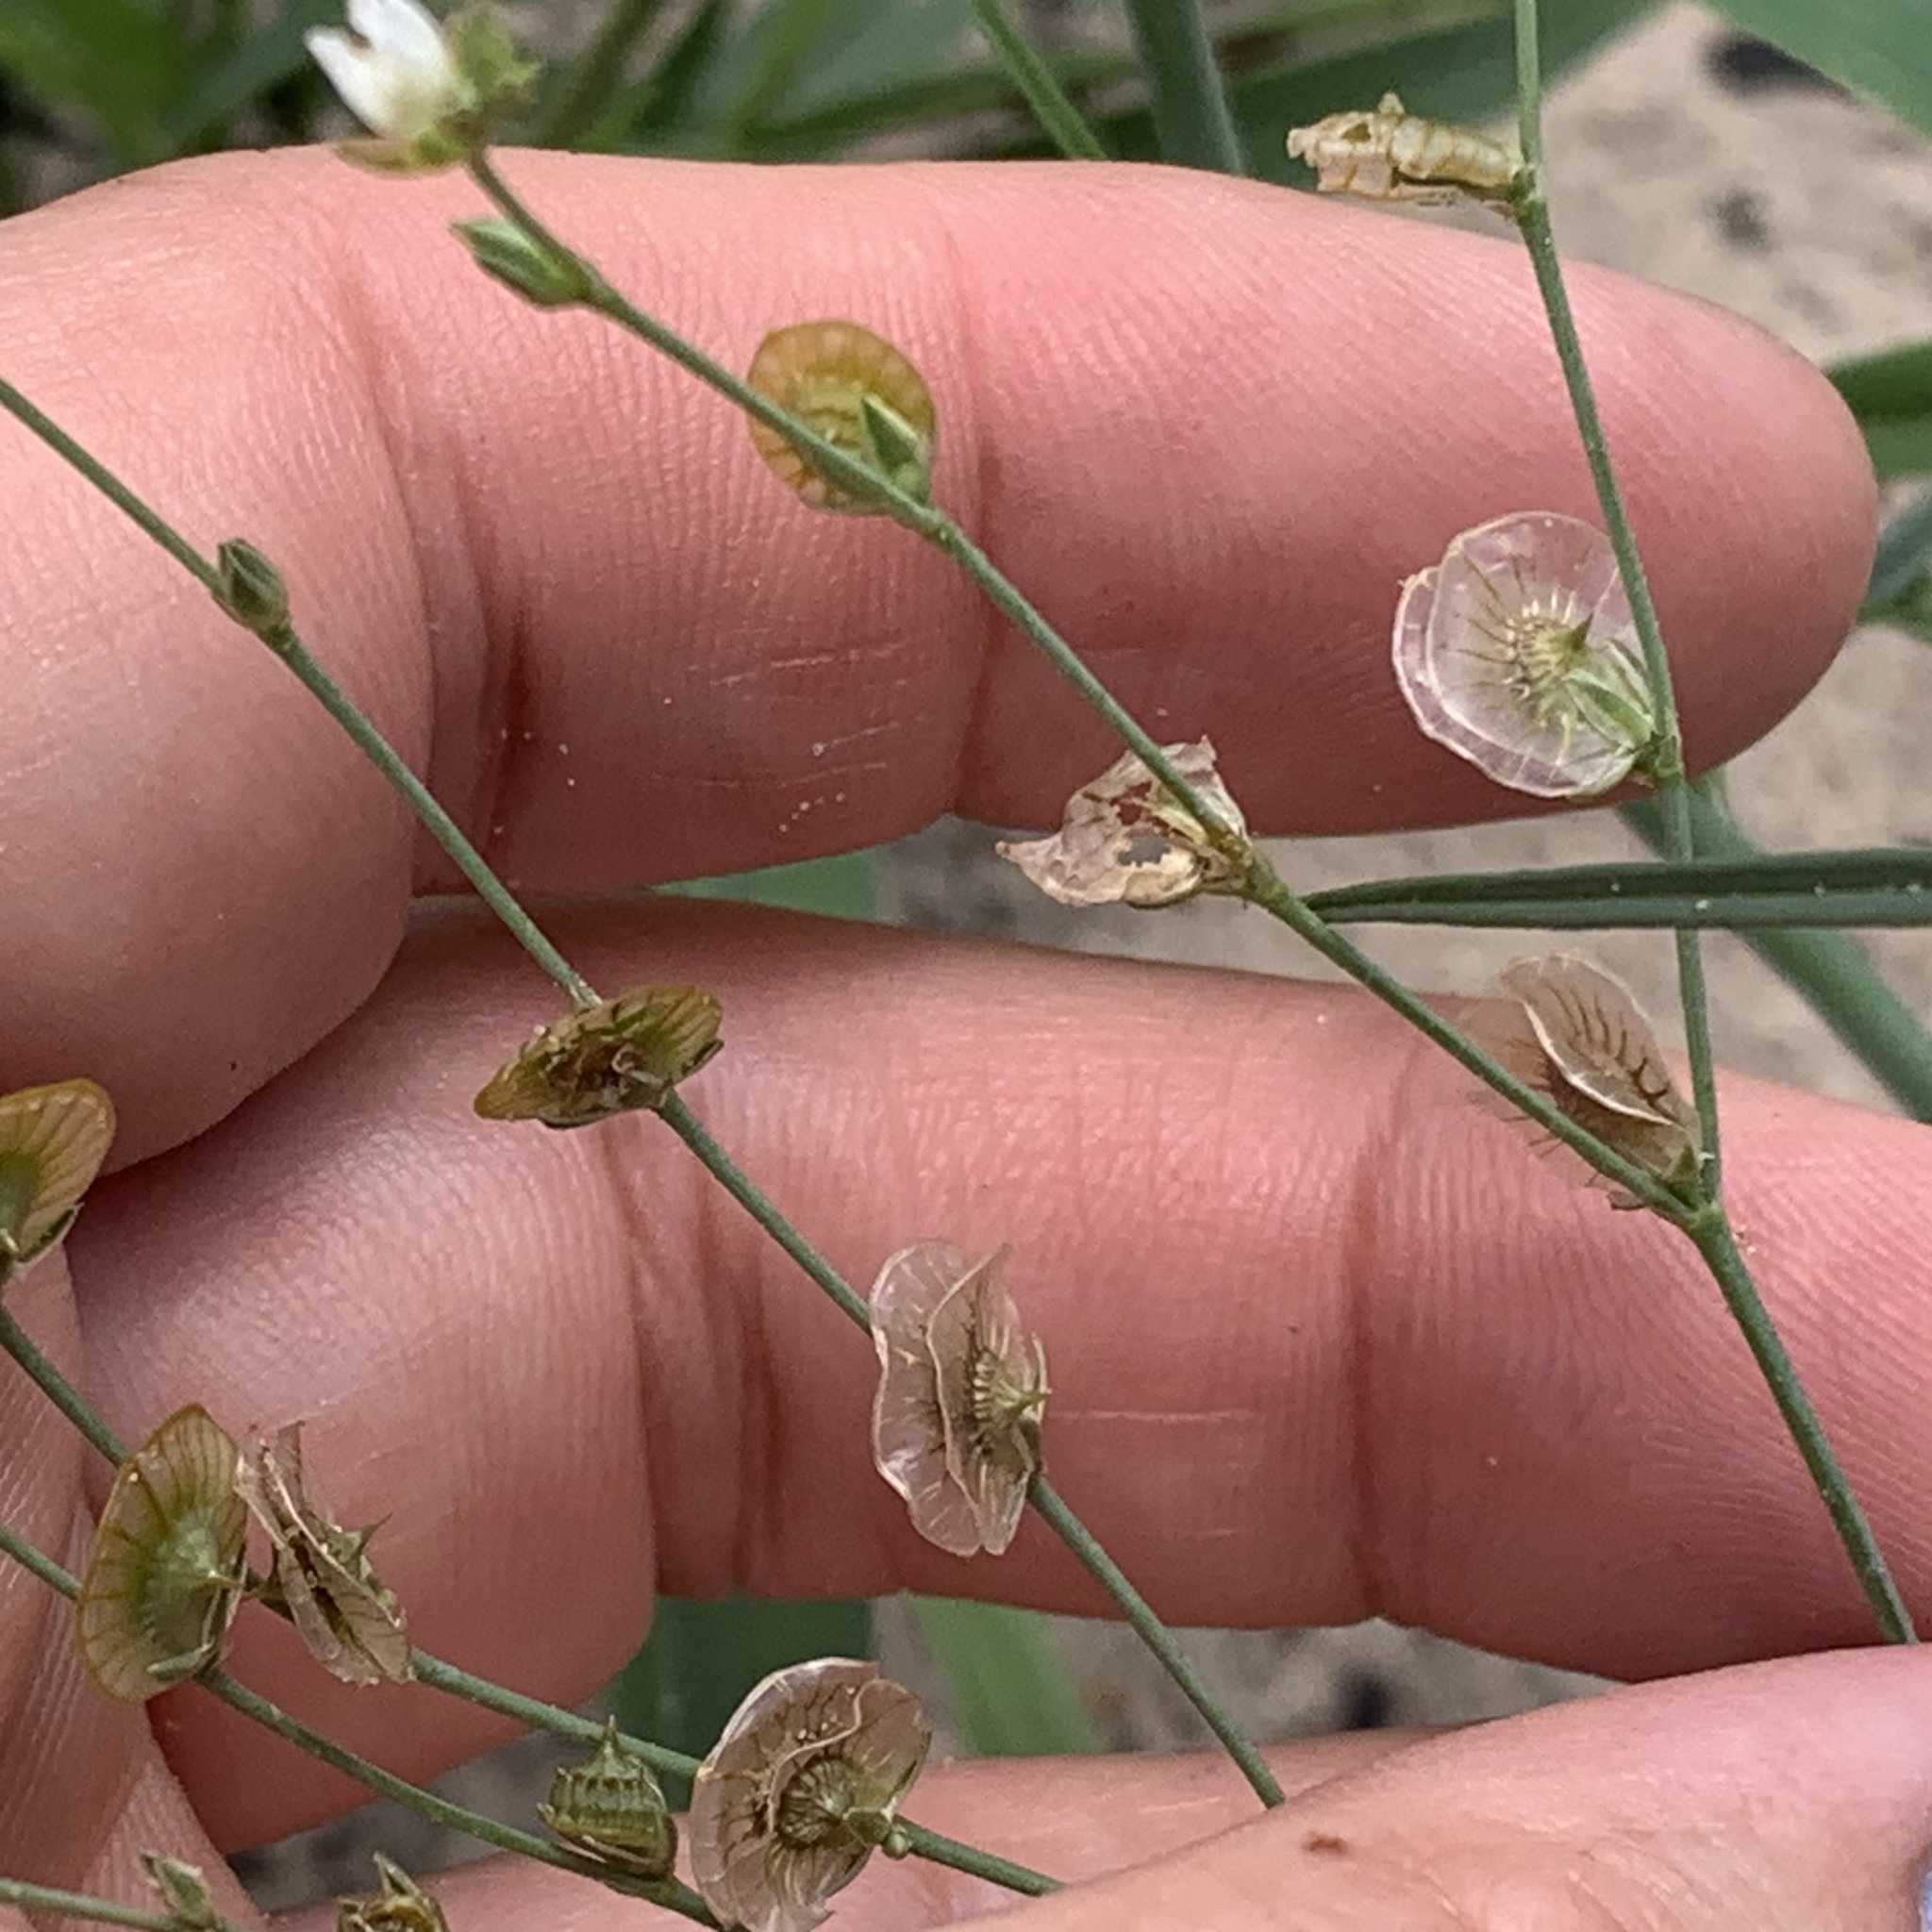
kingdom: Plantae
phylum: Tracheophyta
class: Magnoliopsida
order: Caryophyllales
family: Limeaceae
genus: Limeum
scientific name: Limeum fenestratum
